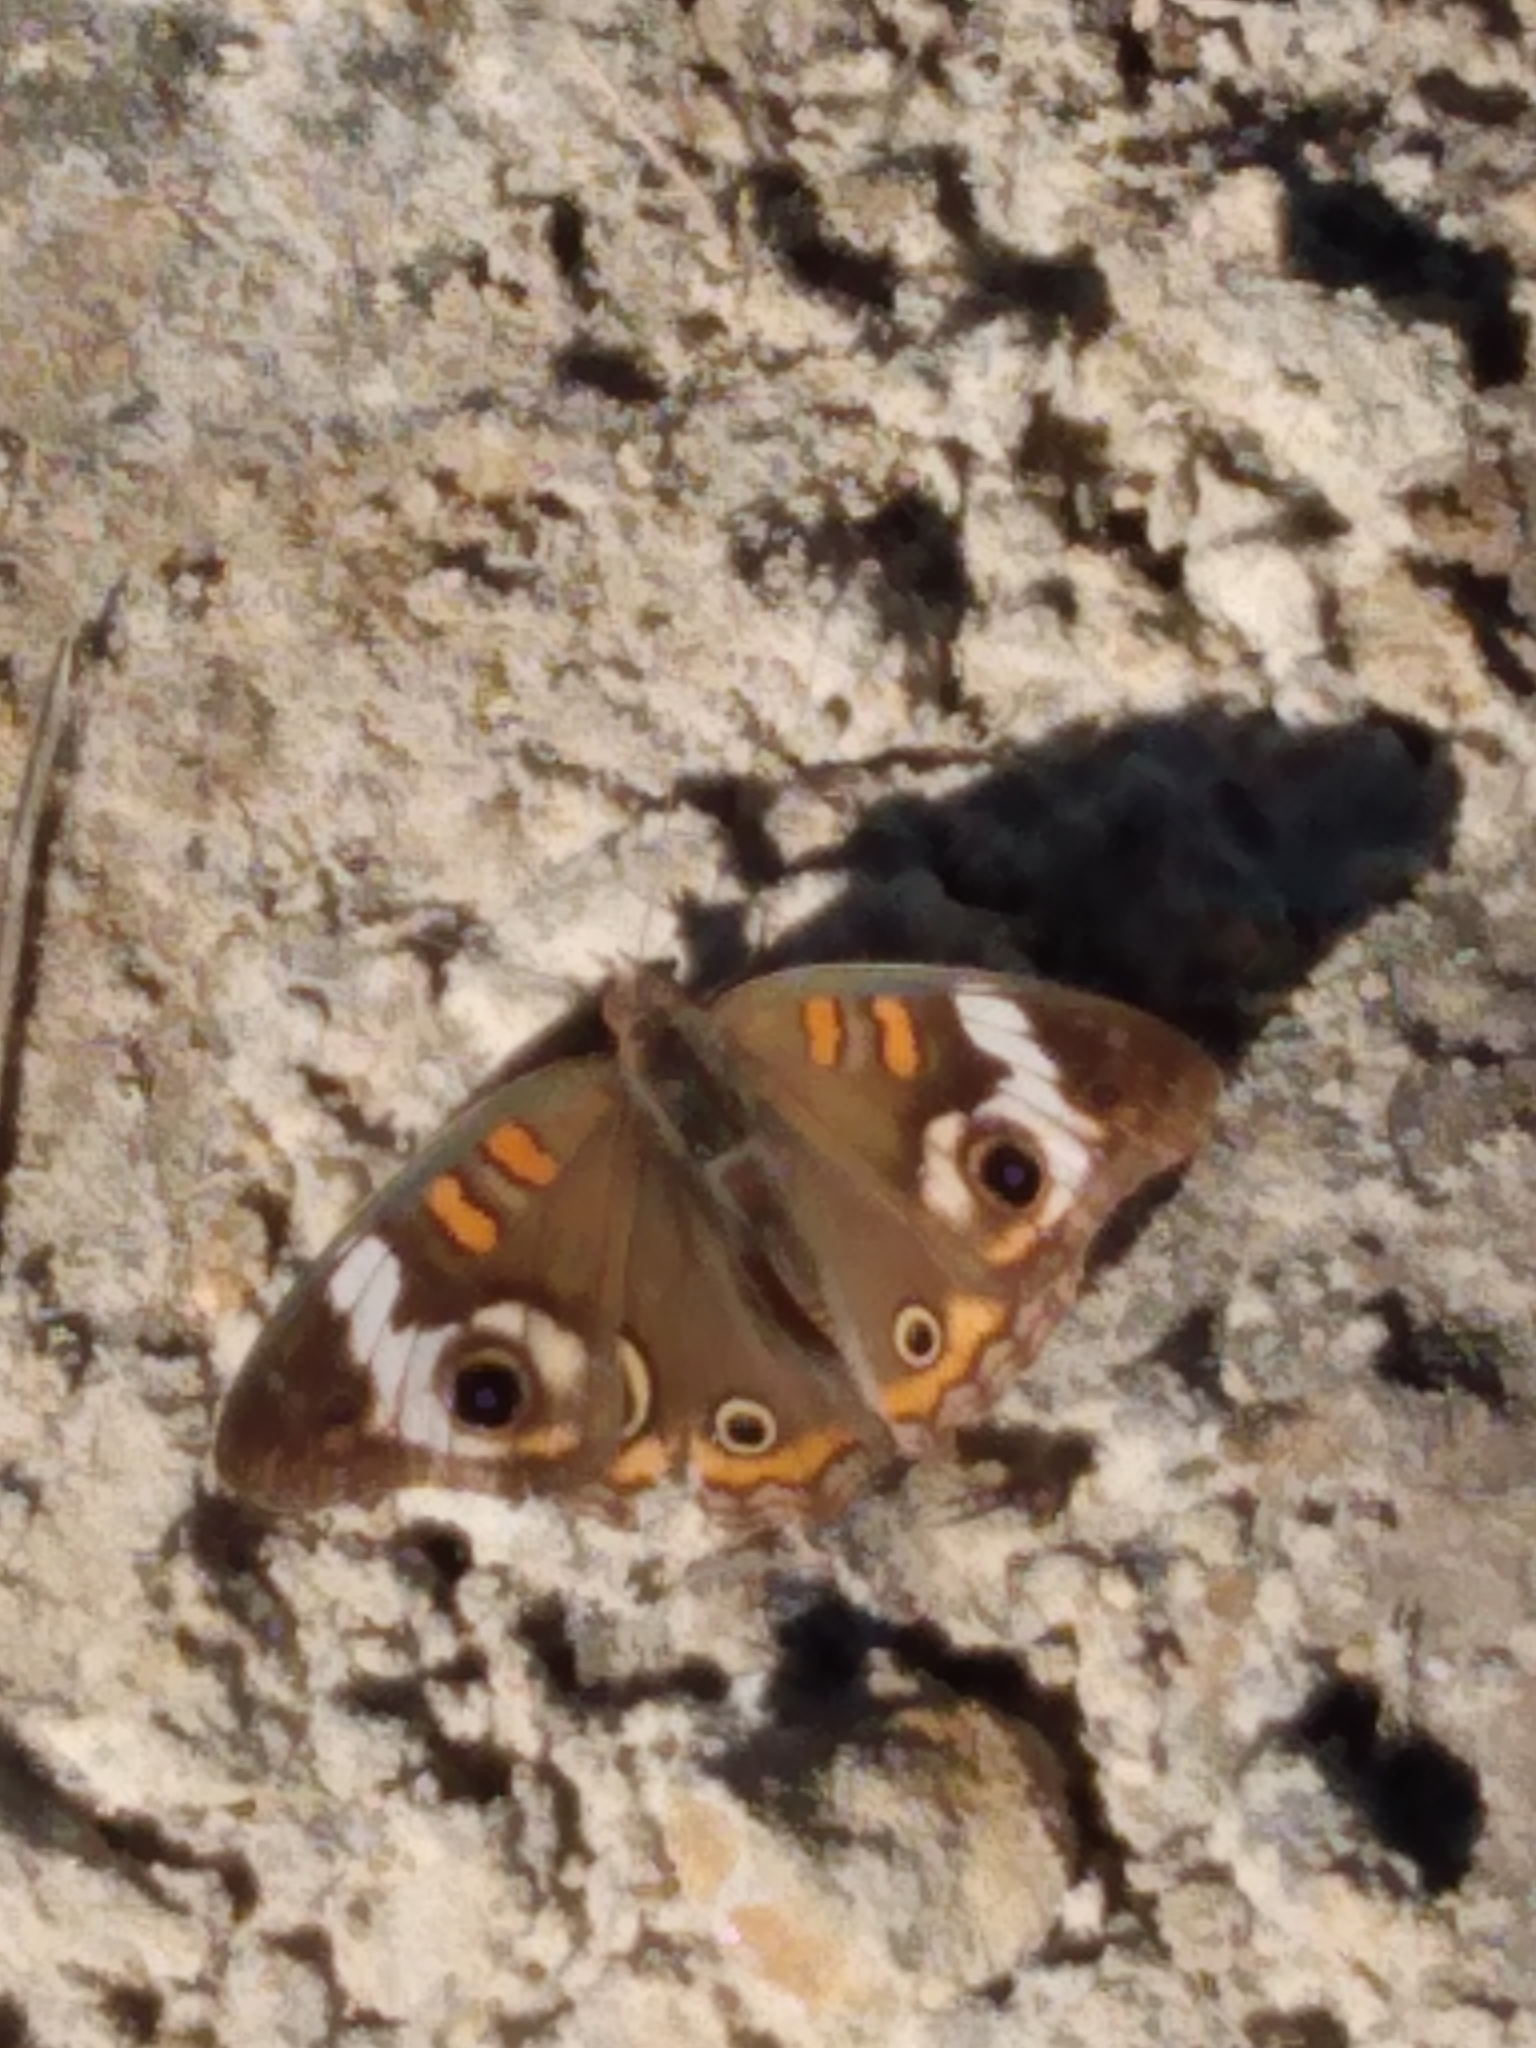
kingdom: Animalia
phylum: Arthropoda
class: Insecta
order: Lepidoptera
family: Nymphalidae
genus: Junonia
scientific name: Junonia coenia
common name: Common buckeye
